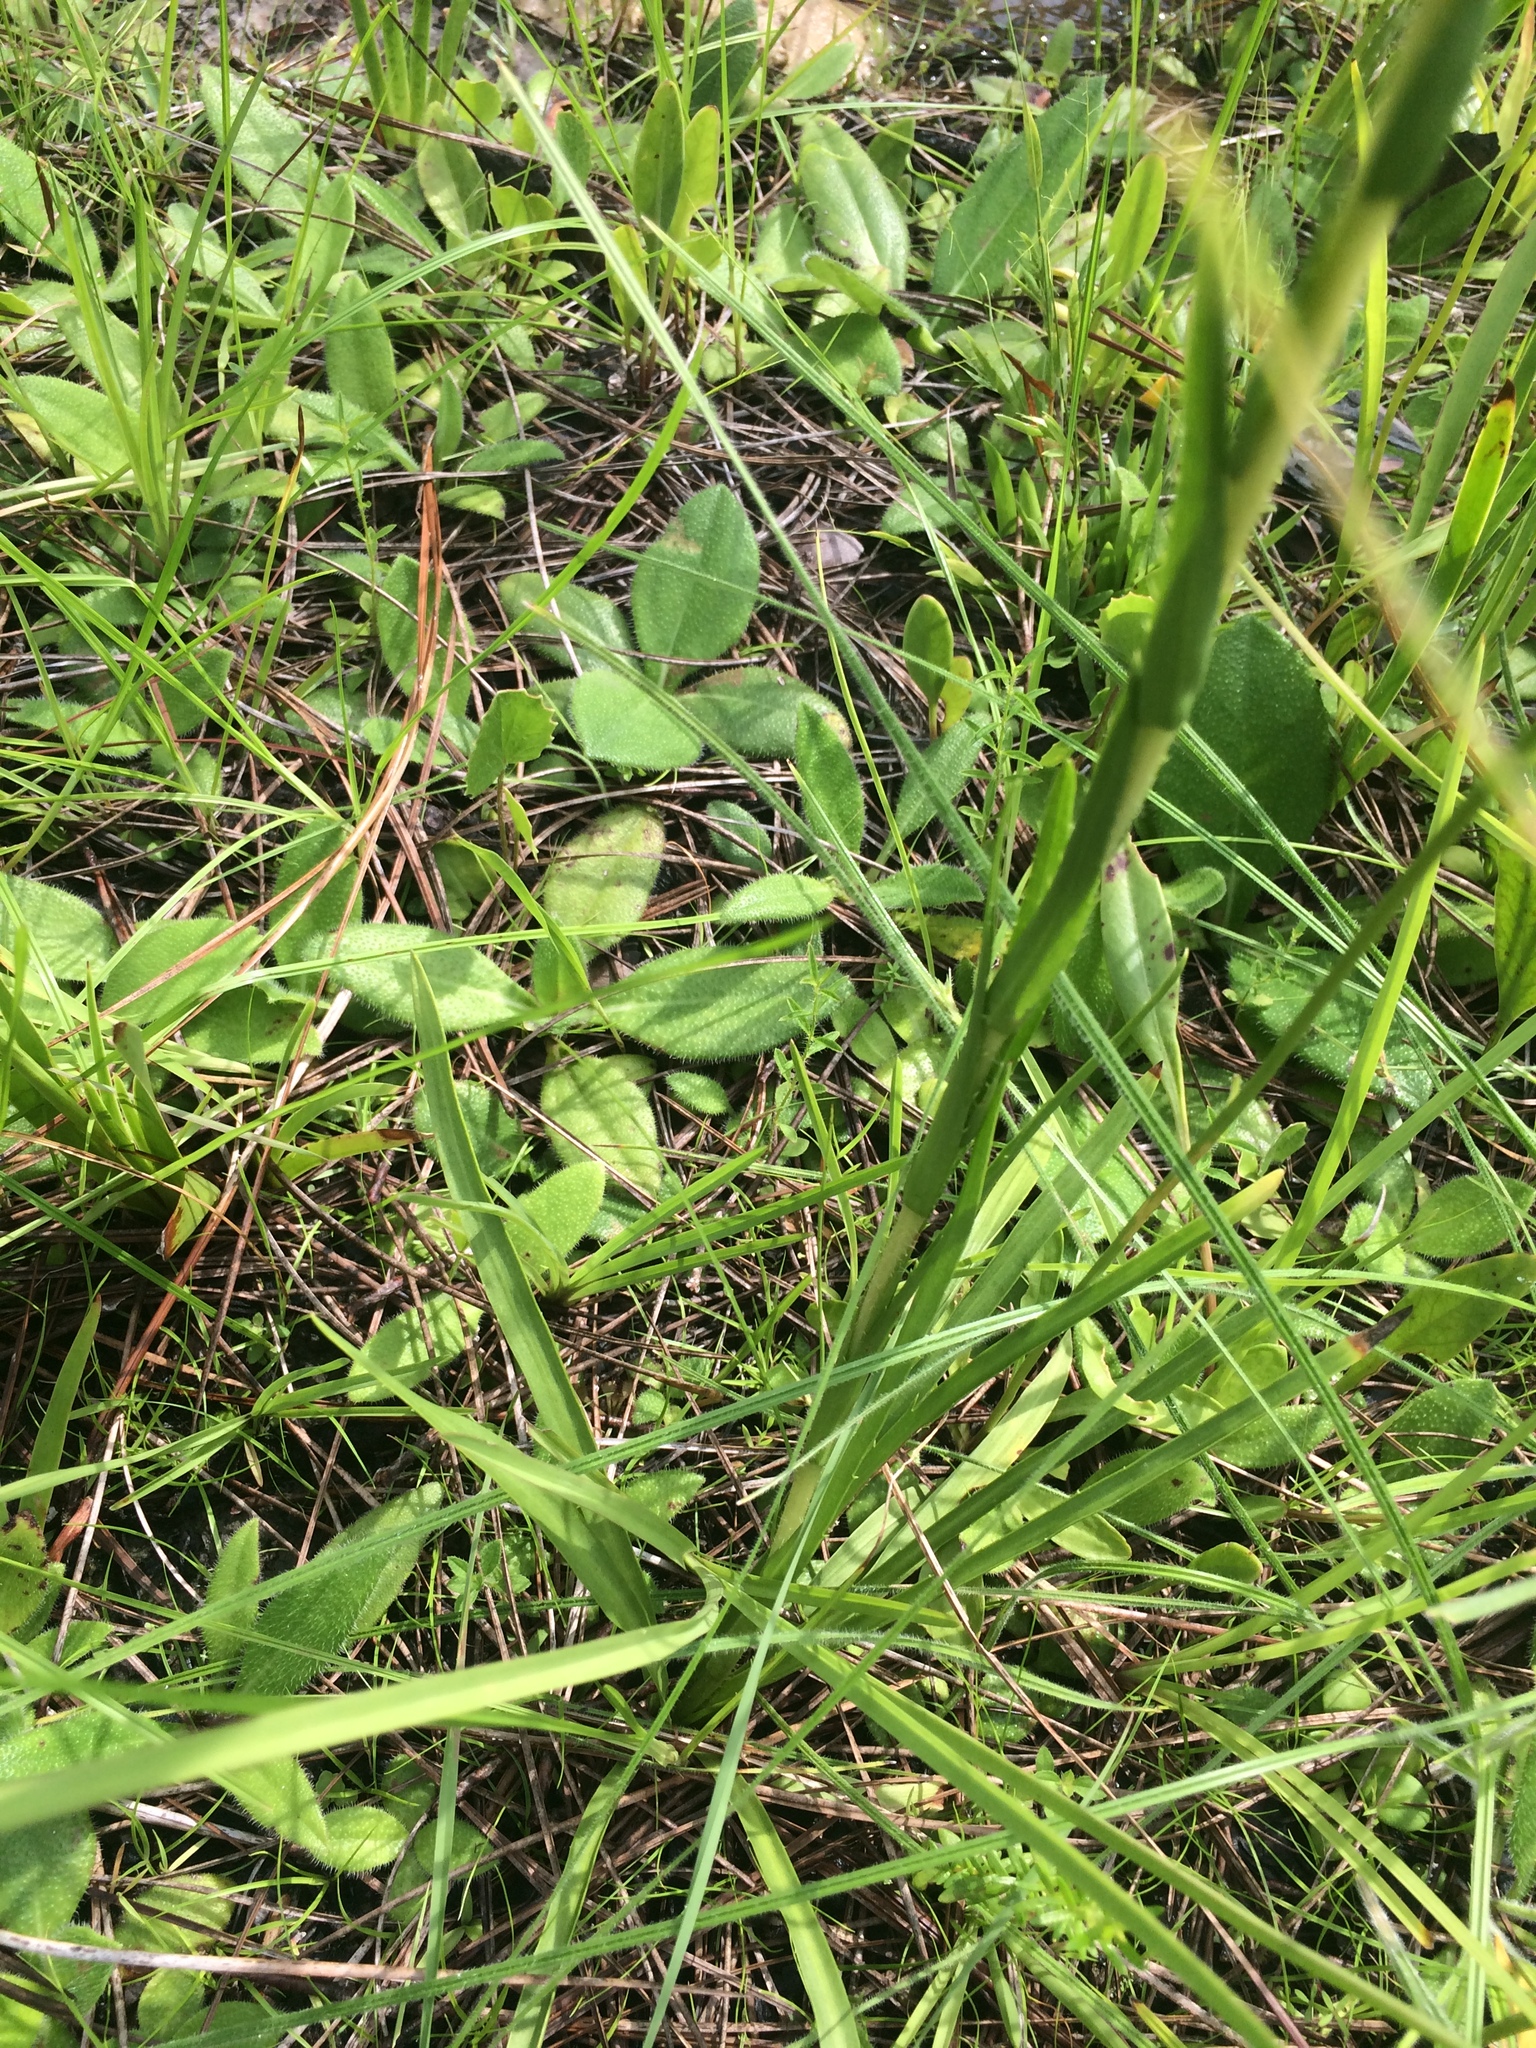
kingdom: Plantae
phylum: Tracheophyta
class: Magnoliopsida
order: Asterales
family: Asteraceae
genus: Eurybia
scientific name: Eurybia eryngiifolia
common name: Thistle-leaf aster
